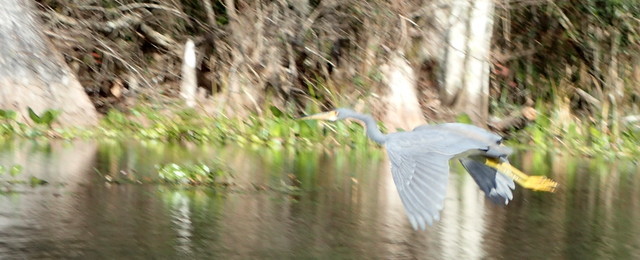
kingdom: Animalia
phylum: Chordata
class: Aves
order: Pelecaniformes
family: Ardeidae
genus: Egretta
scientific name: Egretta tricolor
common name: Tricolored heron
